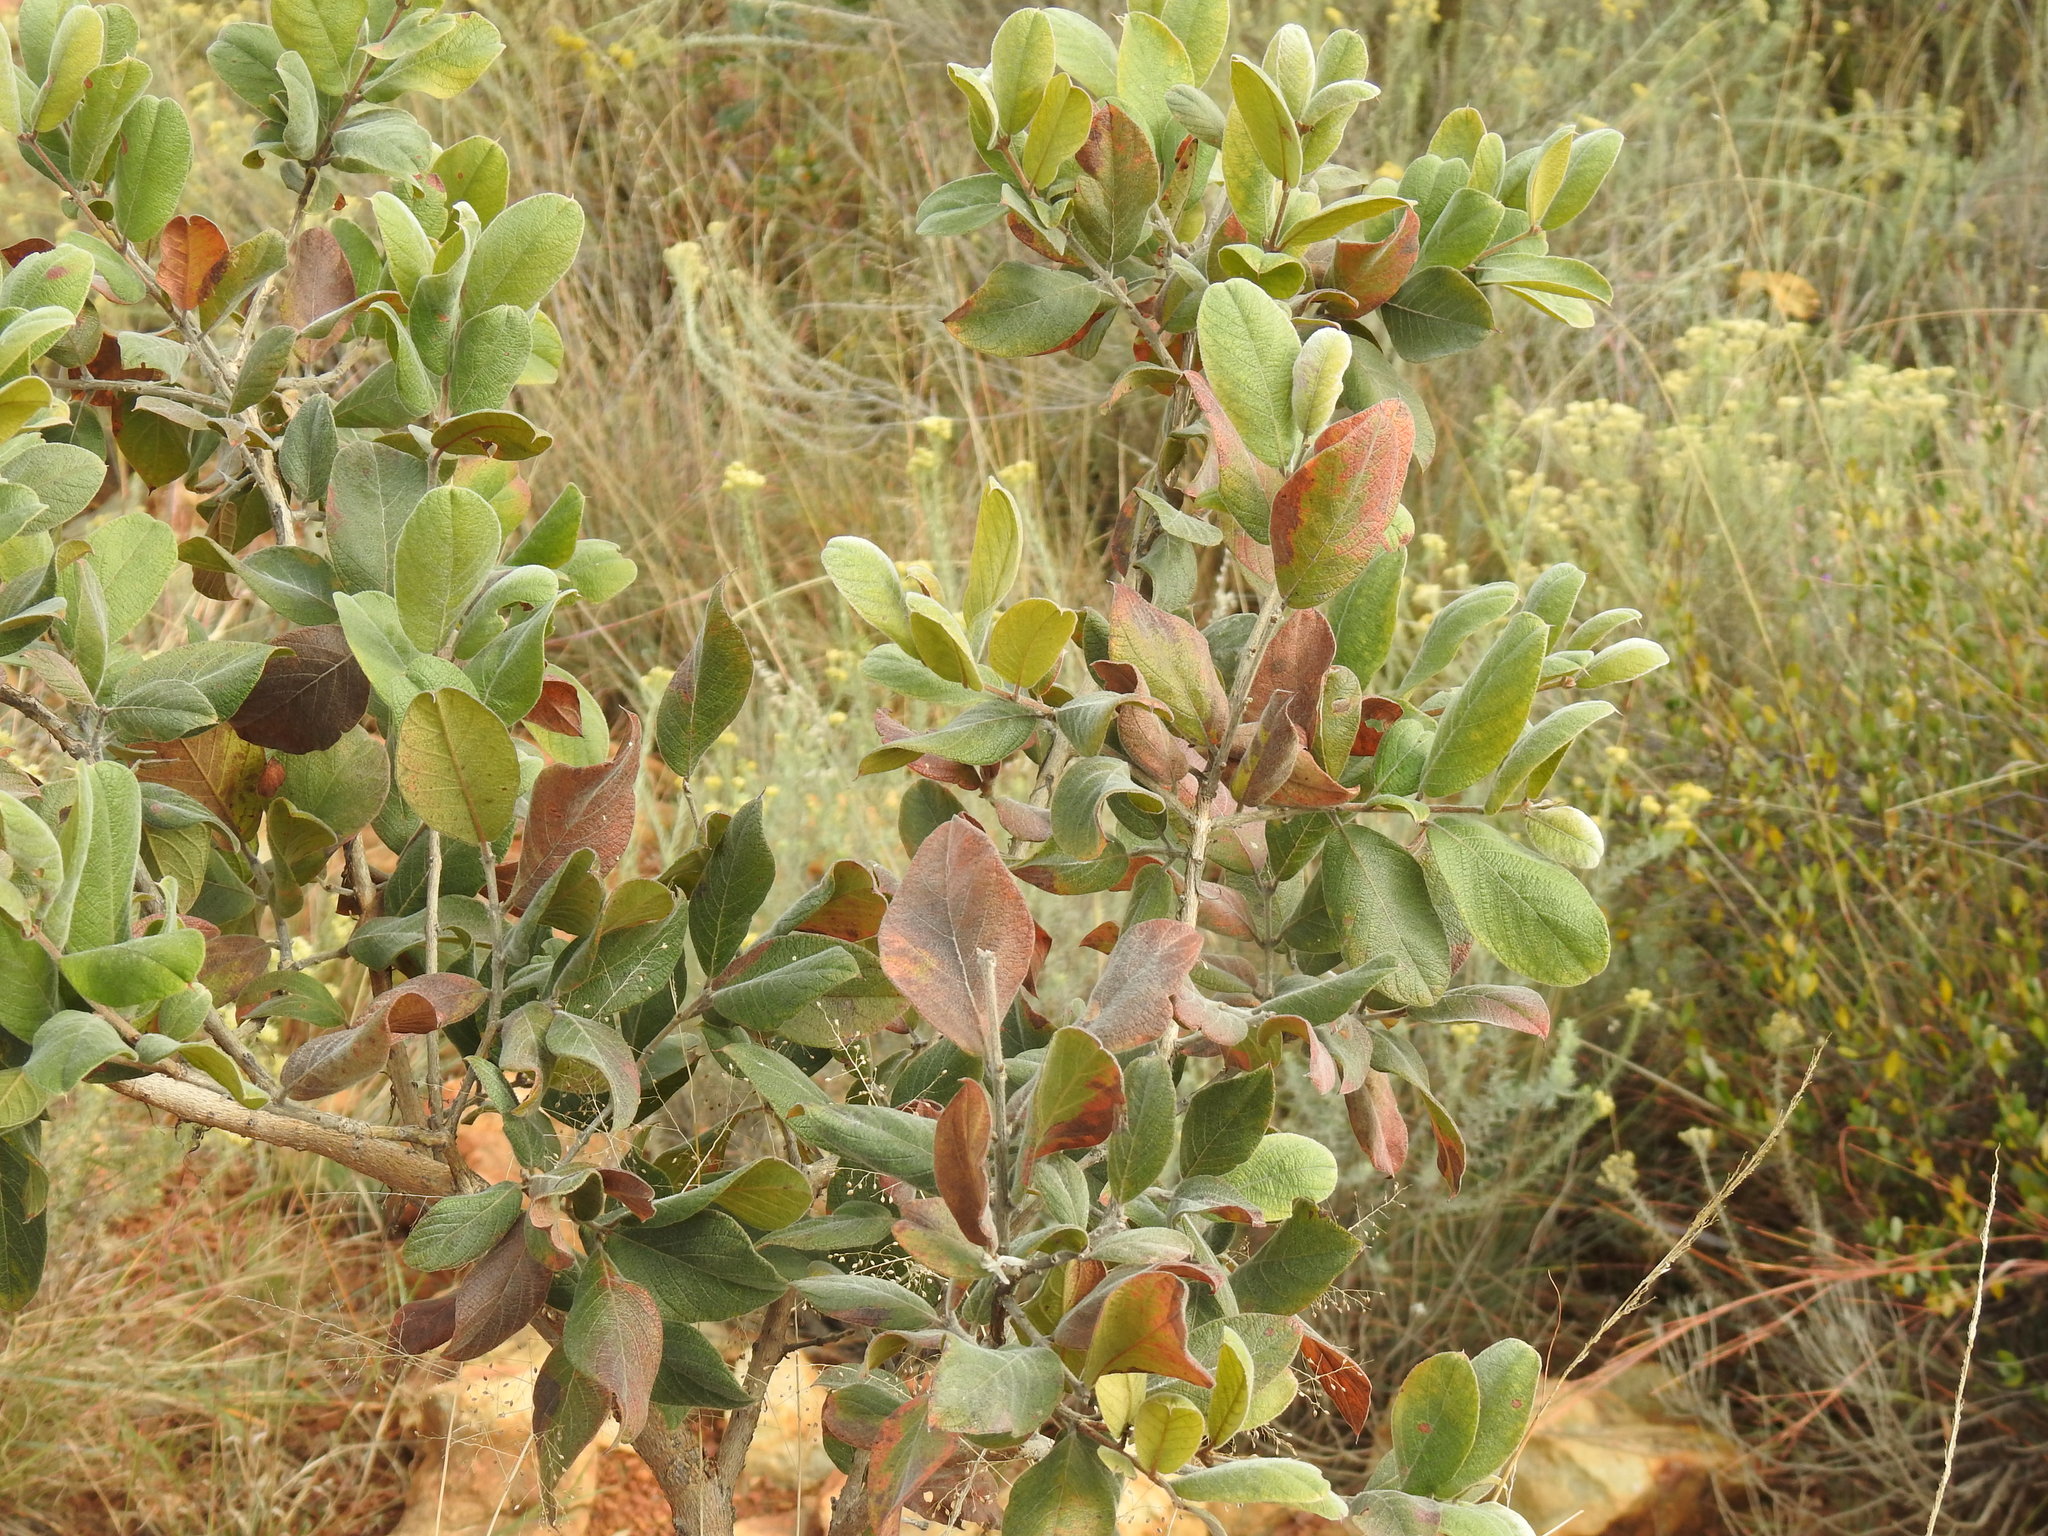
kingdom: Plantae
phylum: Tracheophyta
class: Magnoliopsida
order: Myrtales
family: Combretaceae
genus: Combretum
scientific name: Combretum molle
